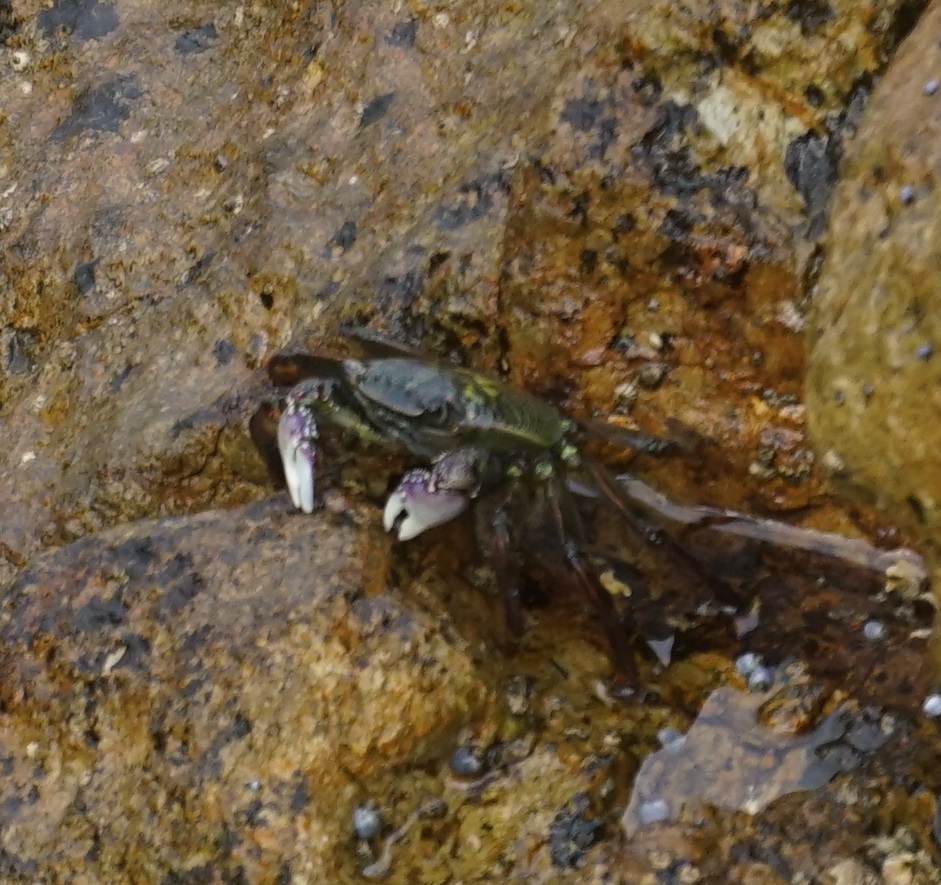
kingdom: Animalia
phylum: Arthropoda
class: Malacostraca
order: Decapoda
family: Grapsidae
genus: Leptograpsus
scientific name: Leptograpsus variegatus
